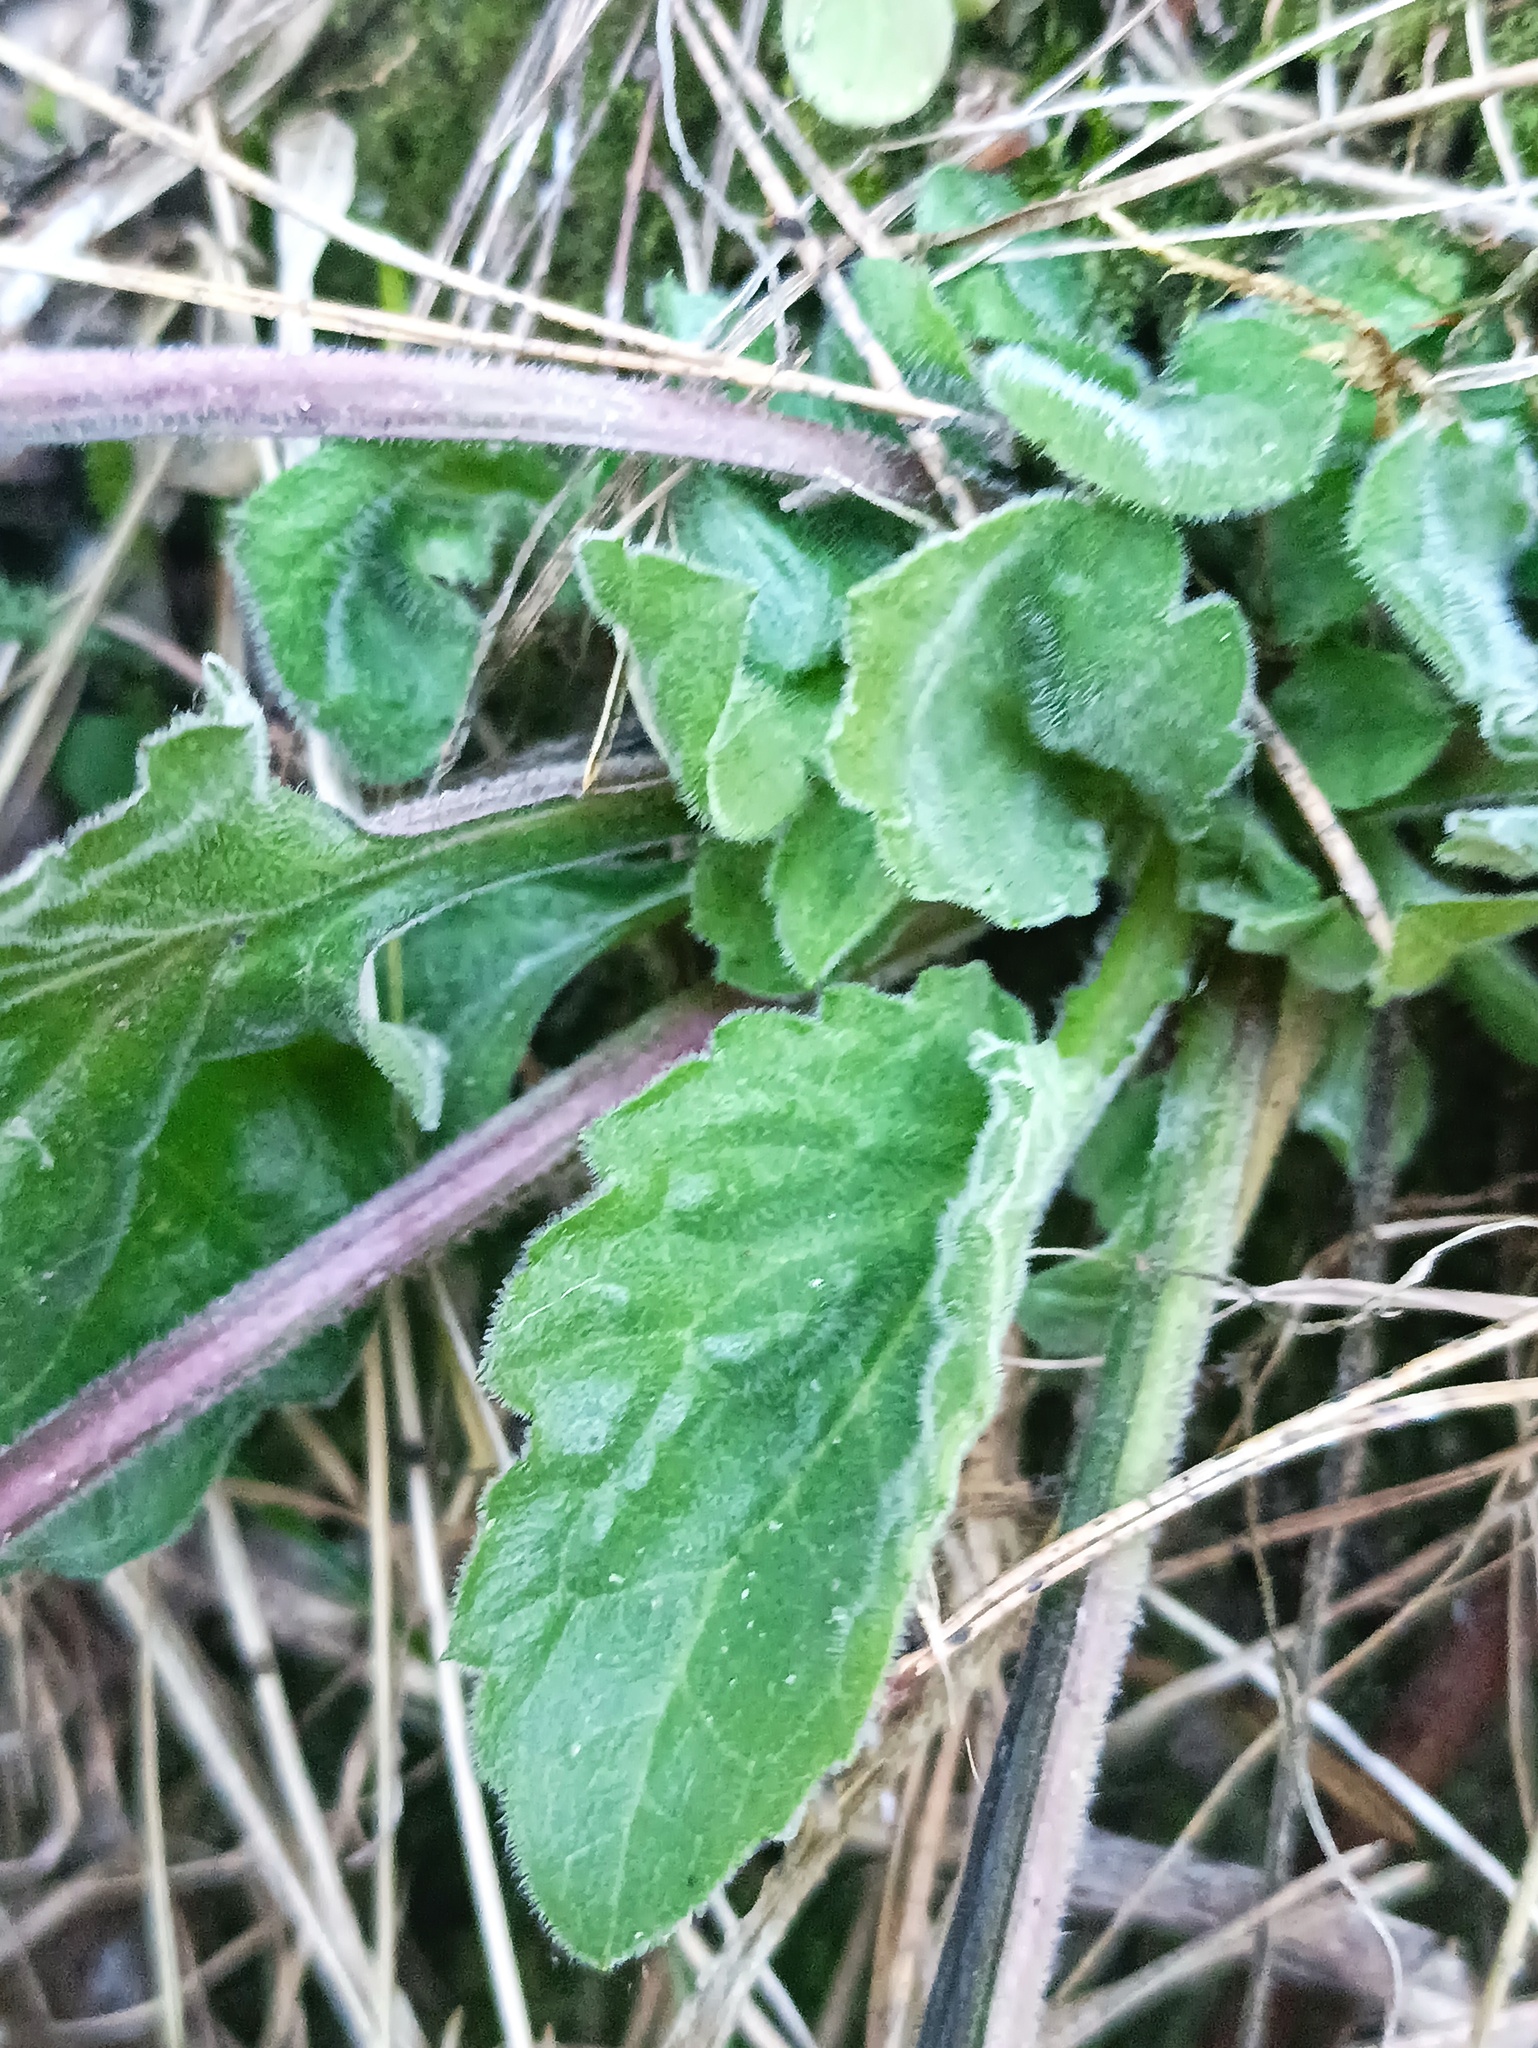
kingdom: Plantae
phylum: Tracheophyta
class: Magnoliopsida
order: Asterales
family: Asteraceae
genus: Erigeron
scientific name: Erigeron annuus
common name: Tall fleabane
